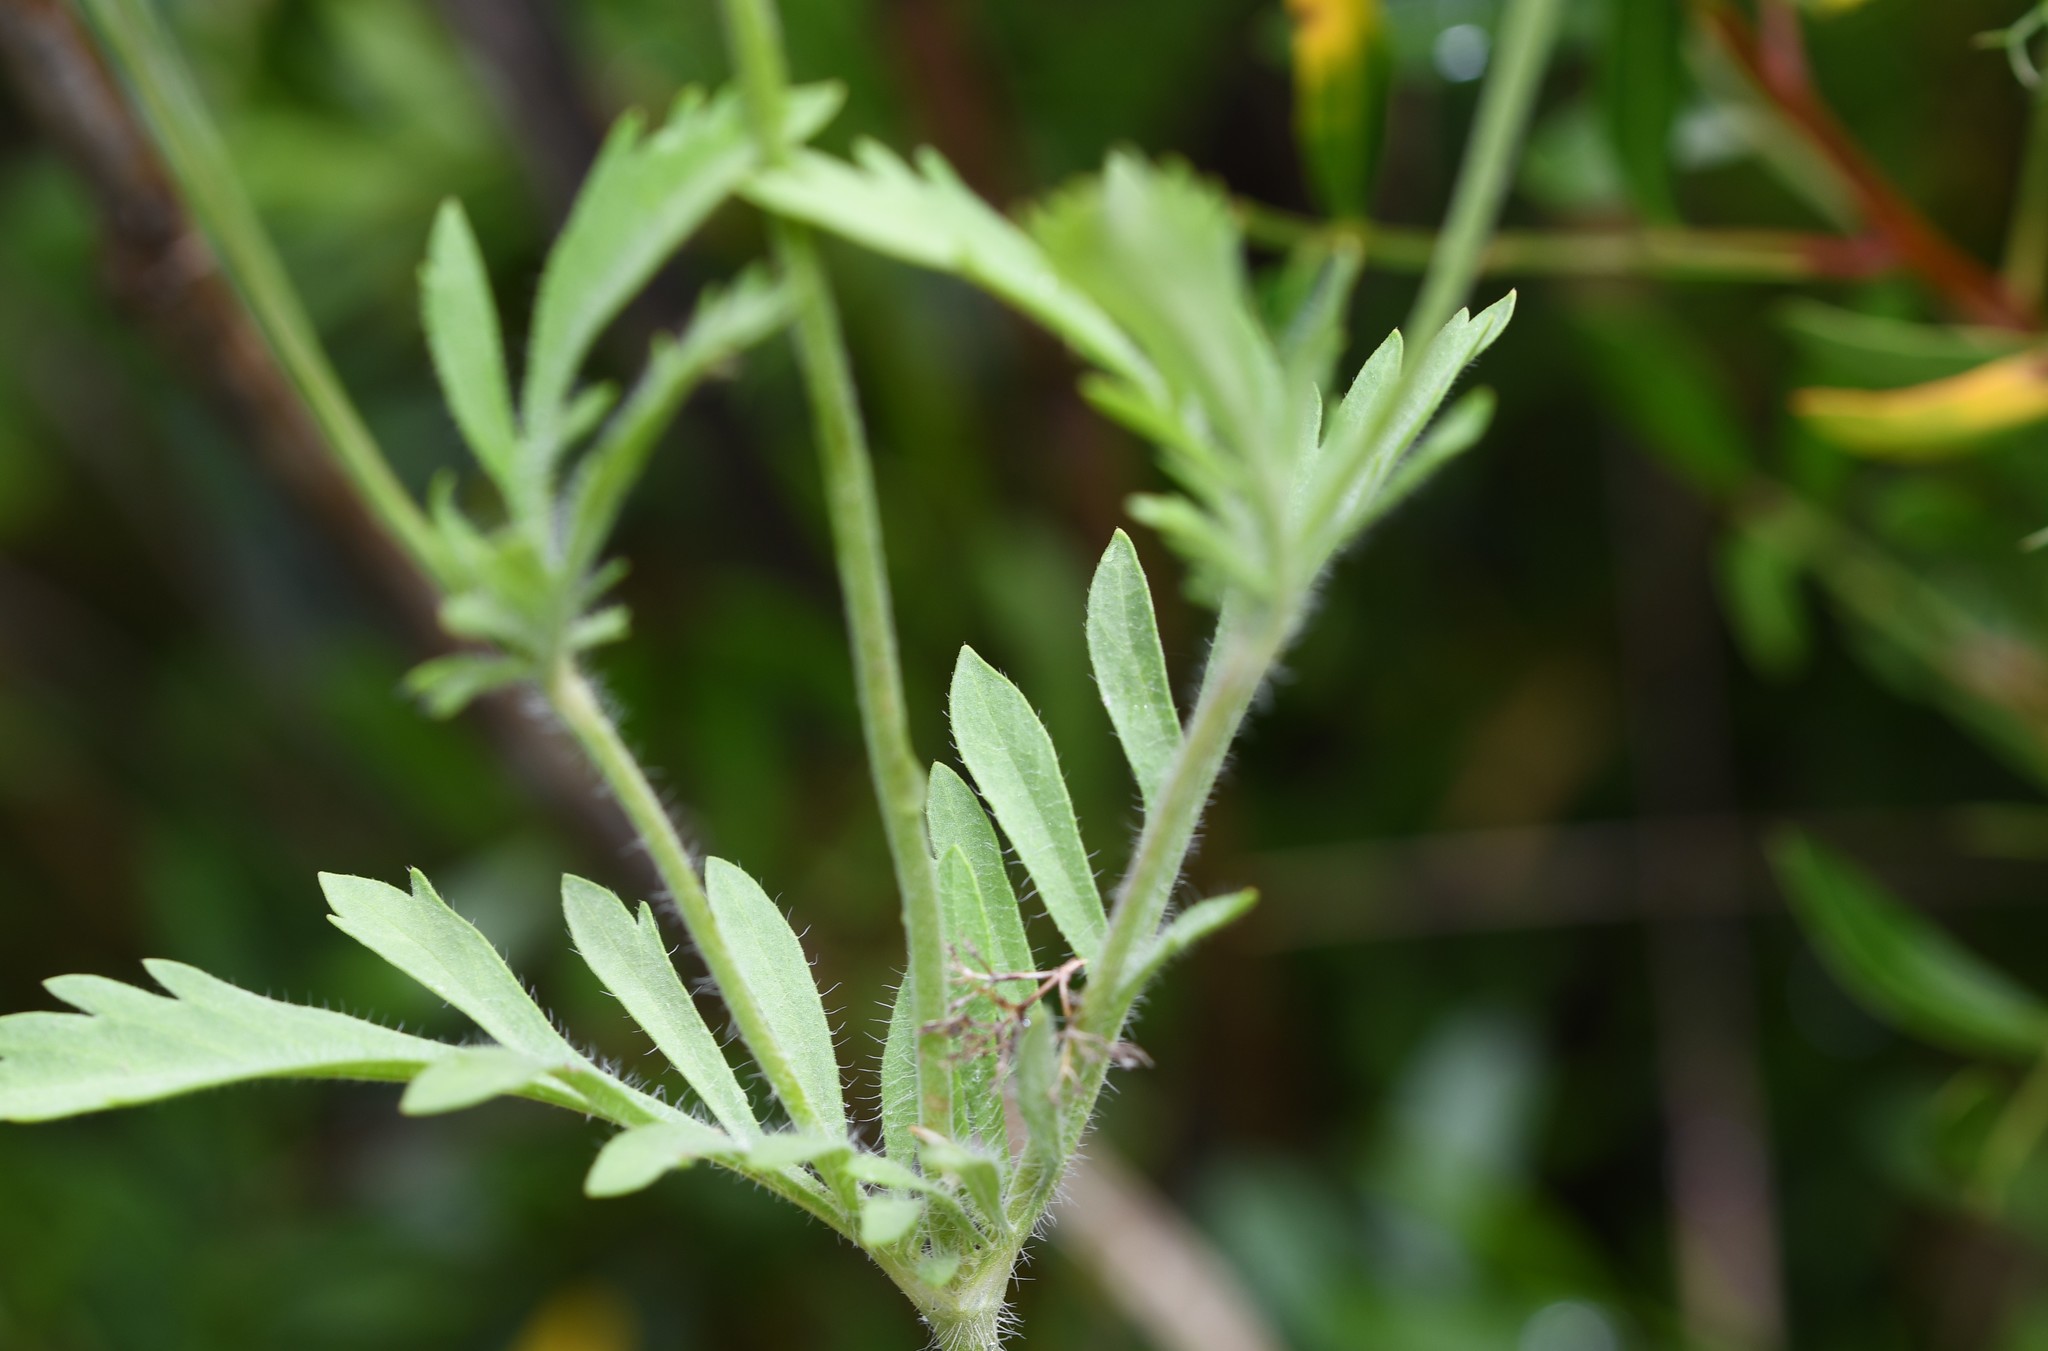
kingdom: Plantae
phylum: Tracheophyta
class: Magnoliopsida
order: Dipsacales
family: Caprifoliaceae
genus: Lomelosia
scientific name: Lomelosia simplex
